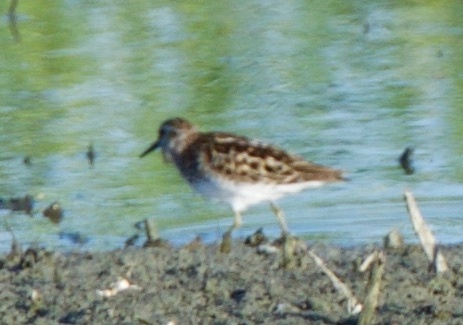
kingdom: Animalia
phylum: Chordata
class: Aves
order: Charadriiformes
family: Scolopacidae
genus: Calidris
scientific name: Calidris minutilla
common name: Least sandpiper
